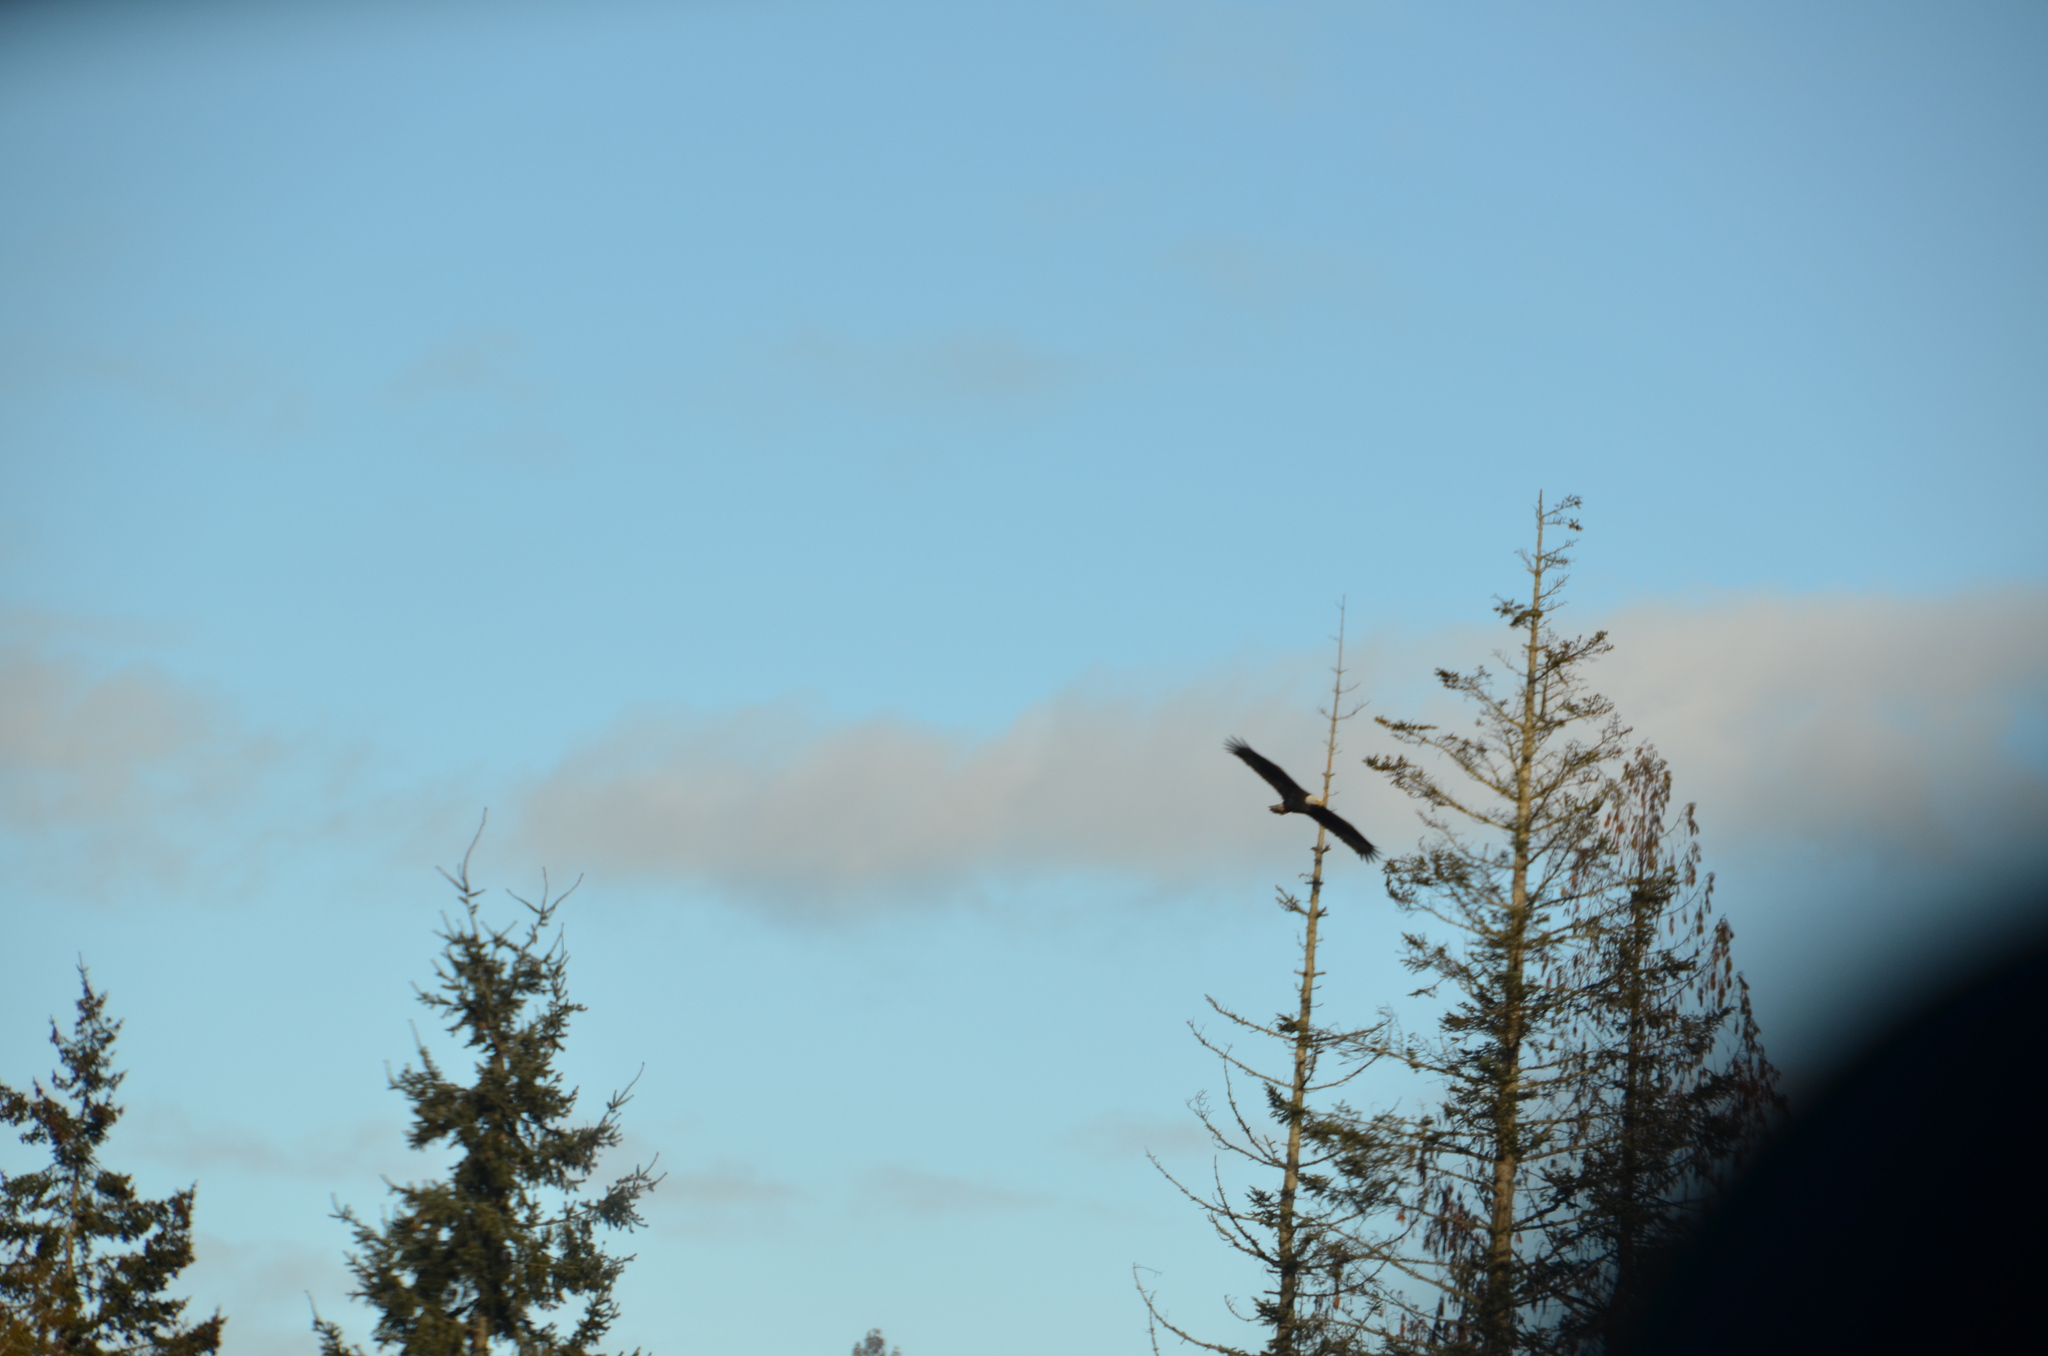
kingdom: Animalia
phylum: Chordata
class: Aves
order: Accipitriformes
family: Accipitridae
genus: Haliaeetus
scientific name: Haliaeetus leucocephalus
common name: Bald eagle
